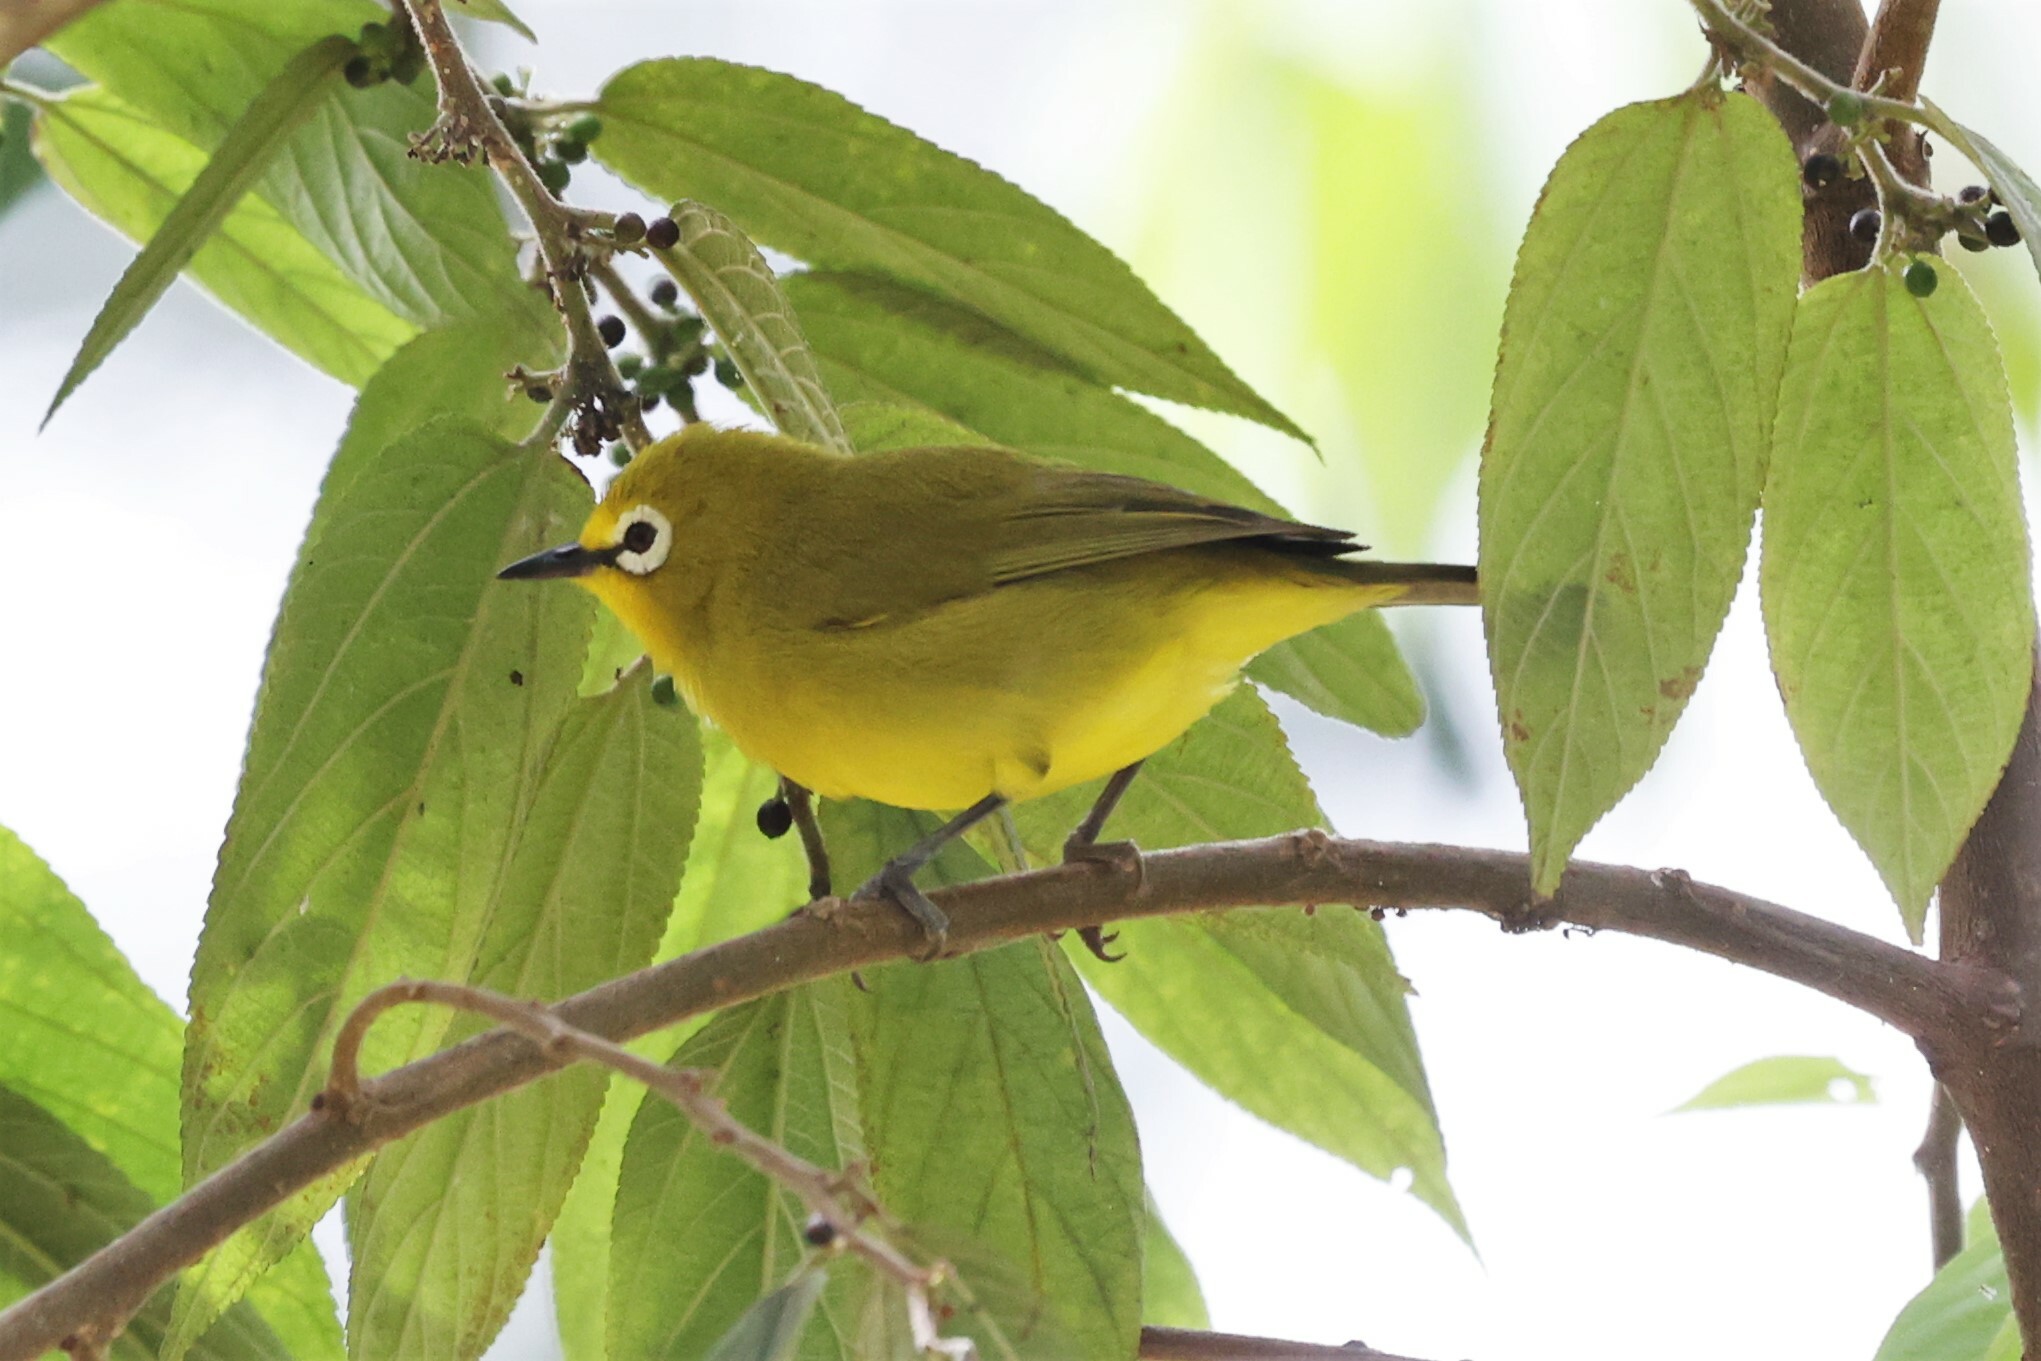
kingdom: Animalia
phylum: Chordata
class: Aves
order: Passeriformes
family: Zosteropidae
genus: Zosterops
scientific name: Zosterops stuhlmanni
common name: Green white-eye
